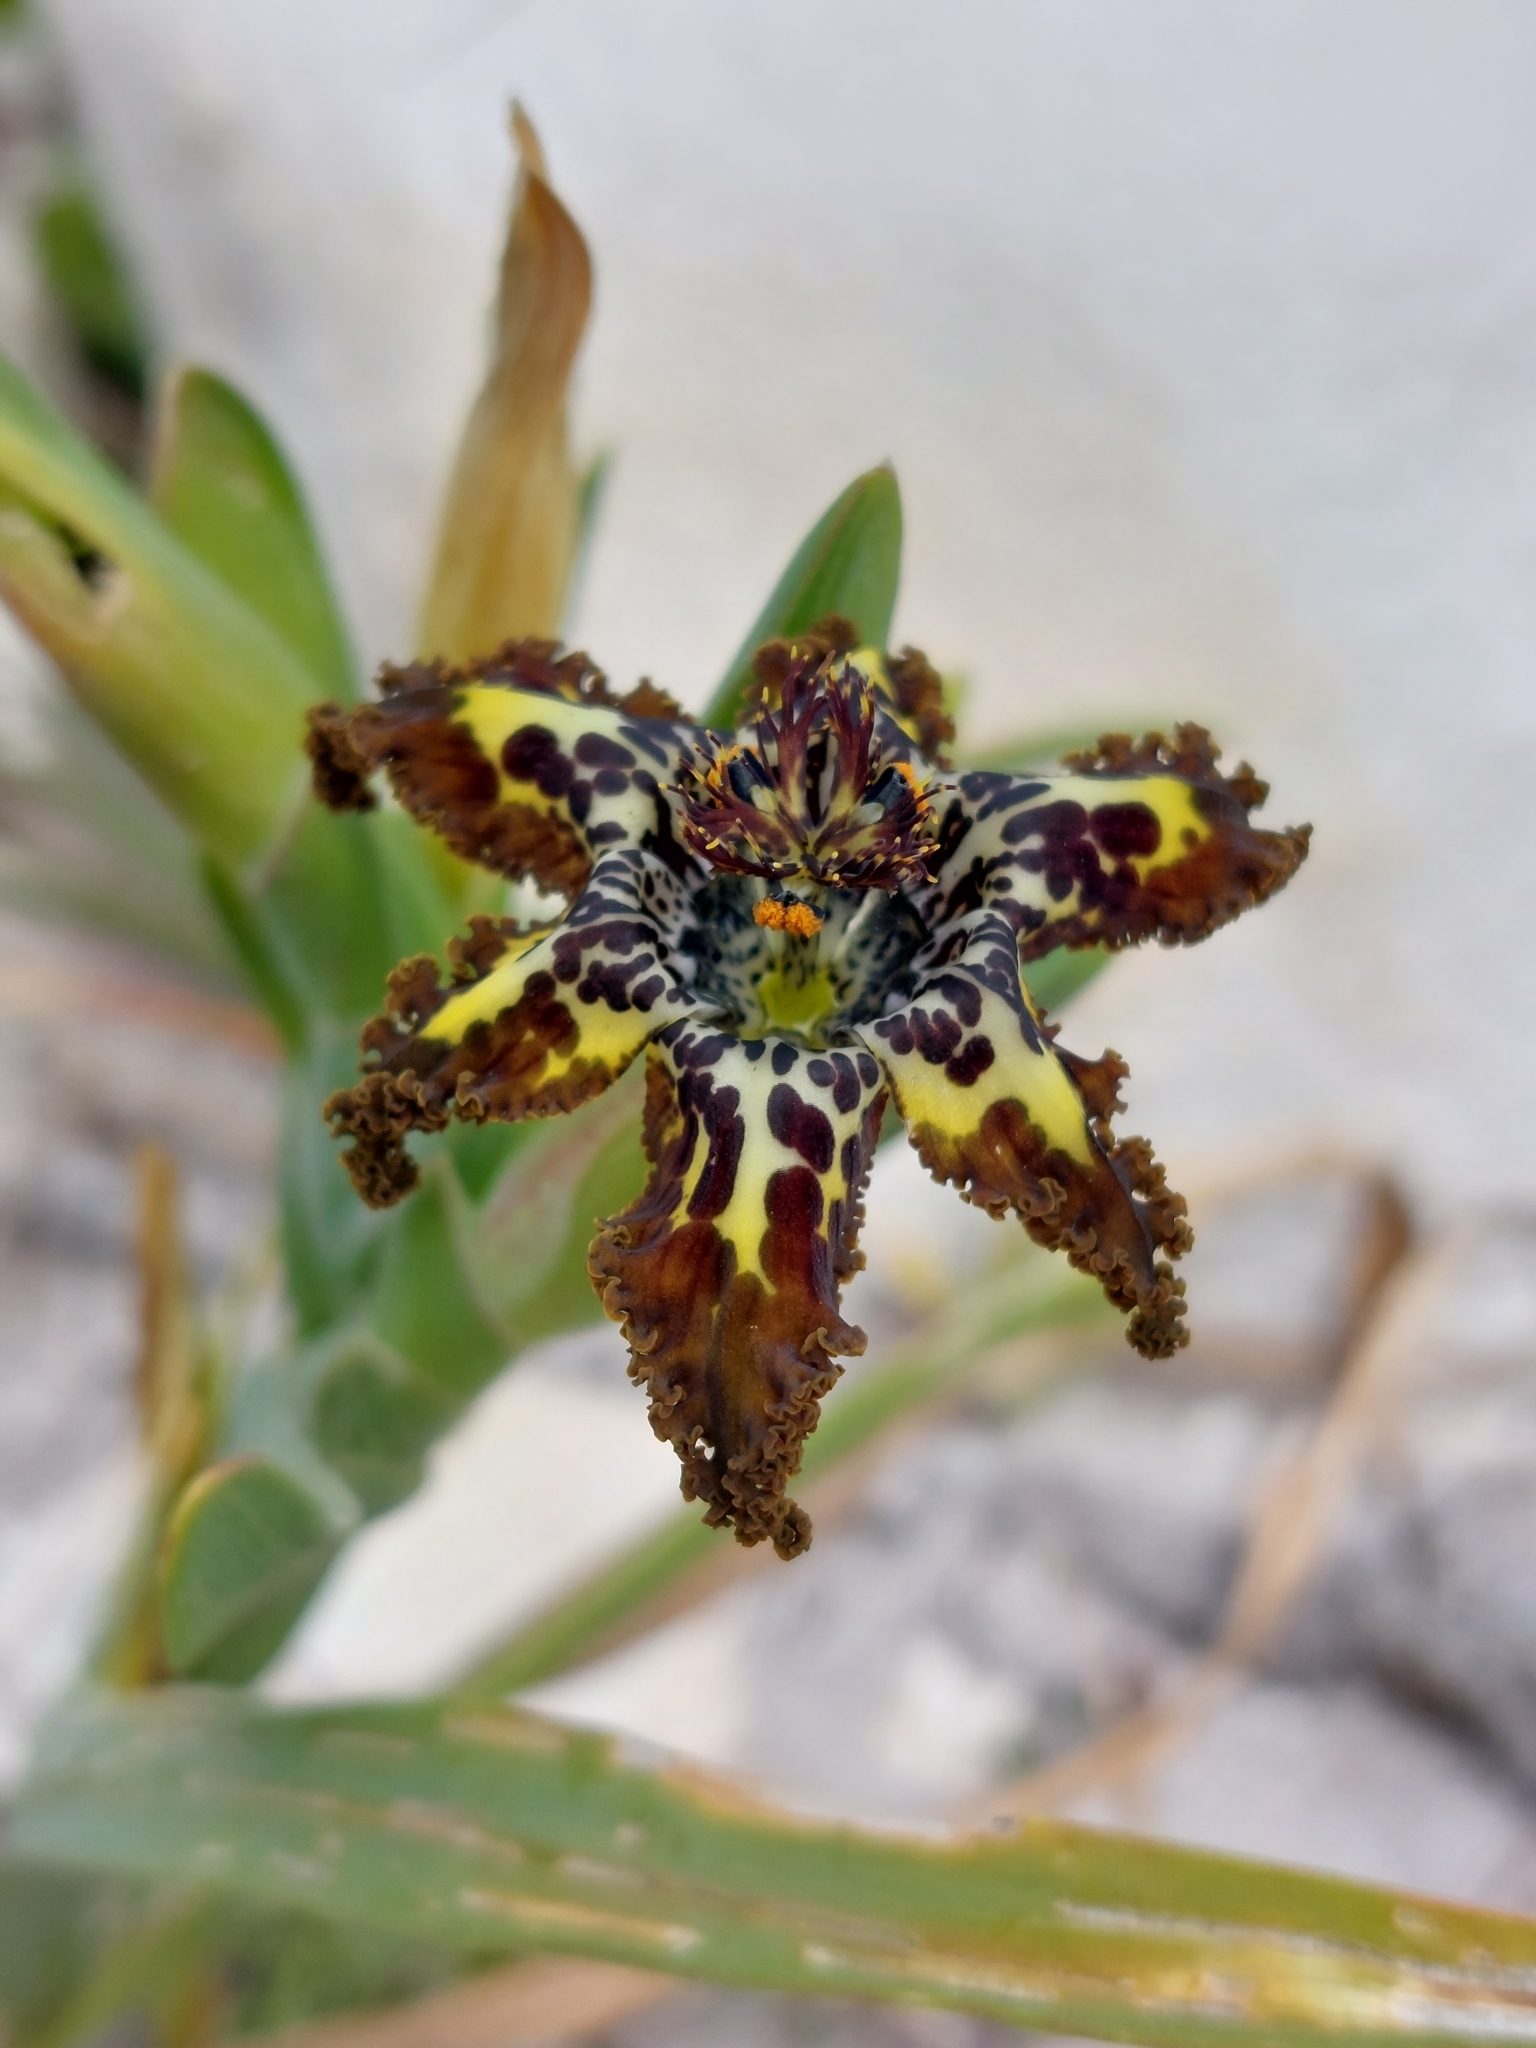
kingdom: Plantae
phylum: Tracheophyta
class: Liliopsida
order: Asparagales
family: Iridaceae
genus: Ferraria
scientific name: Ferraria crispa
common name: Black-flag
